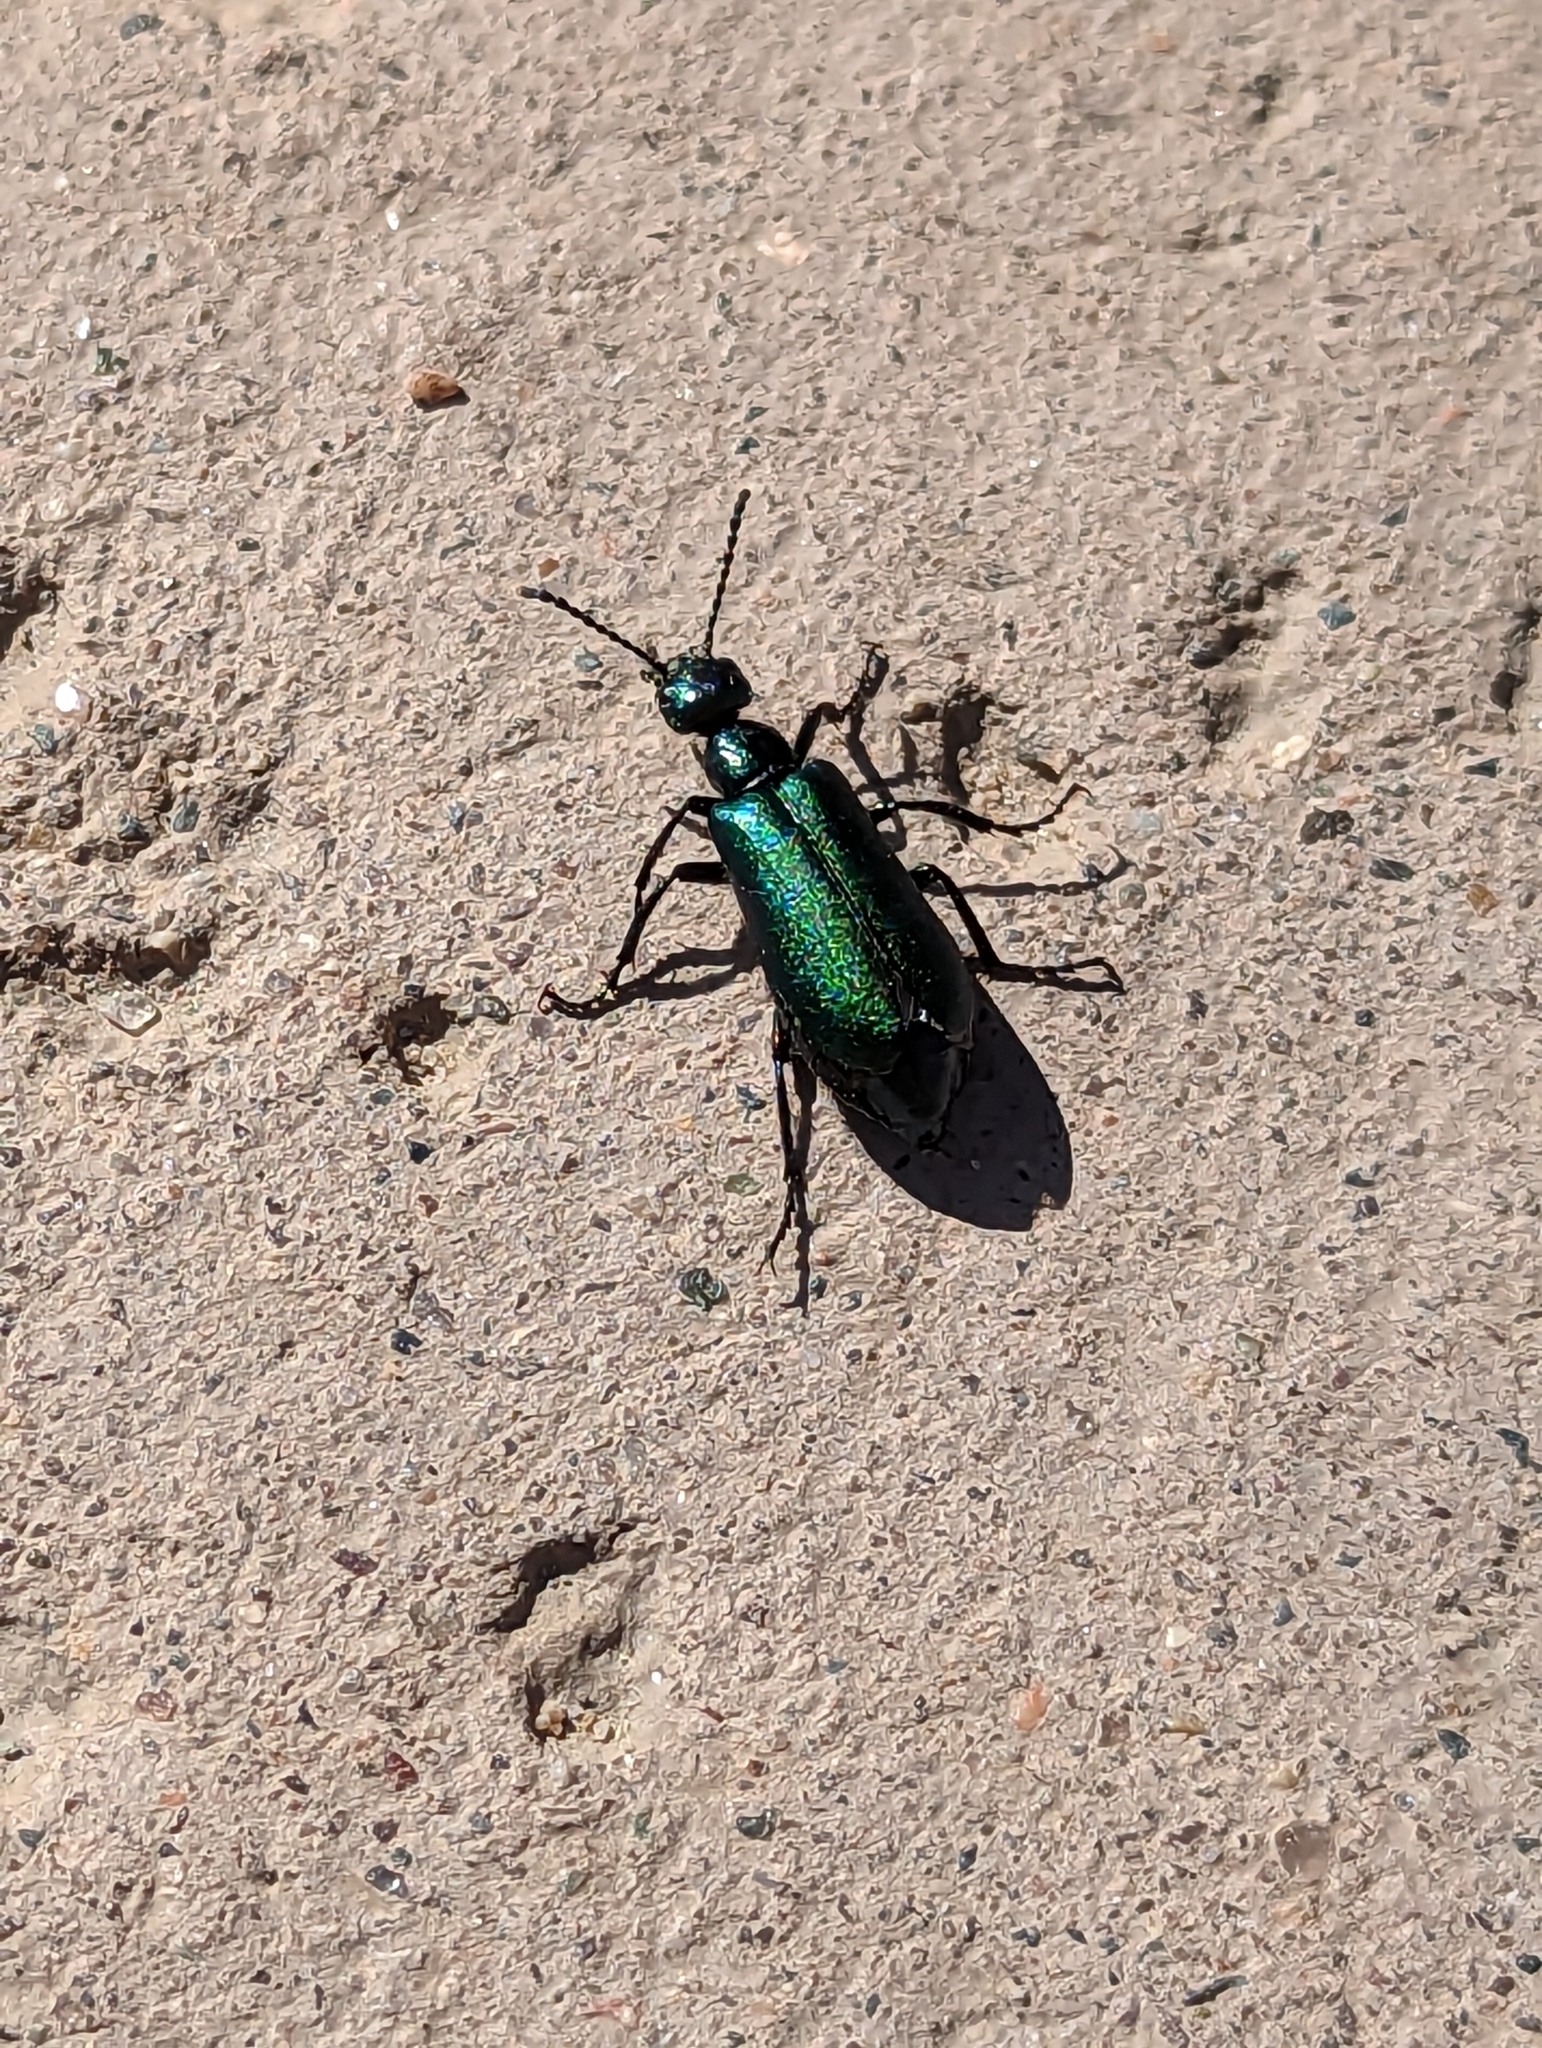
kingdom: Animalia
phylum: Arthropoda
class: Insecta
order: Coleoptera
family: Meloidae
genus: Lytta
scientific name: Lytta stygica
